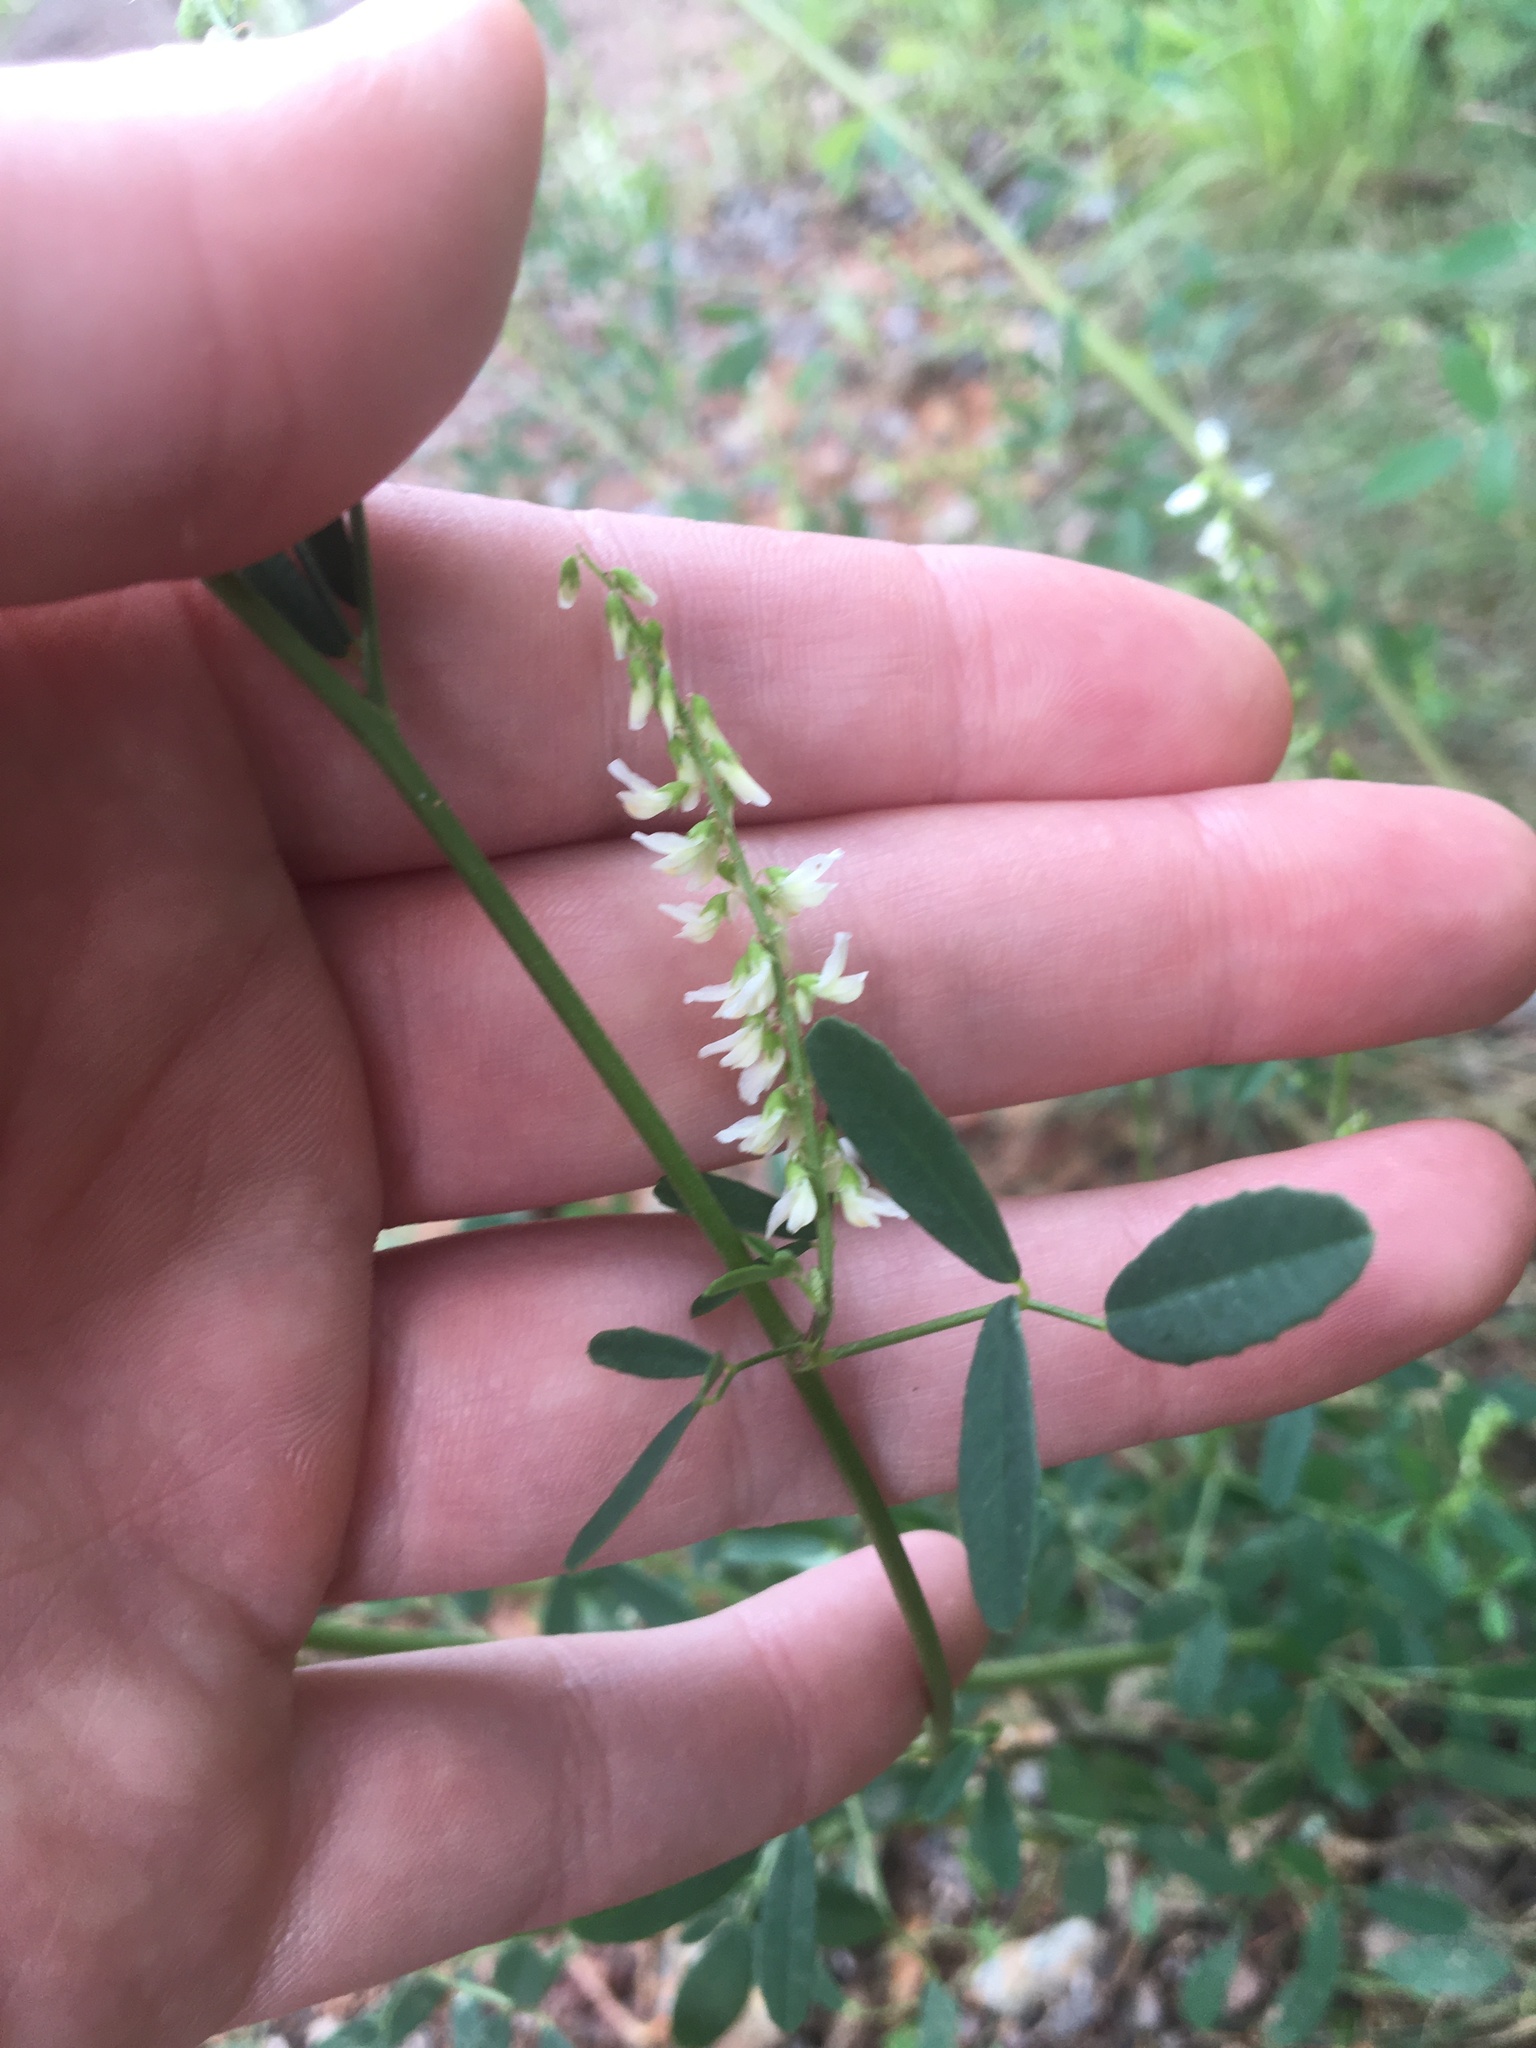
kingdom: Plantae
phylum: Tracheophyta
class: Magnoliopsida
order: Fabales
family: Fabaceae
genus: Melilotus
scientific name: Melilotus albus
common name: White melilot
